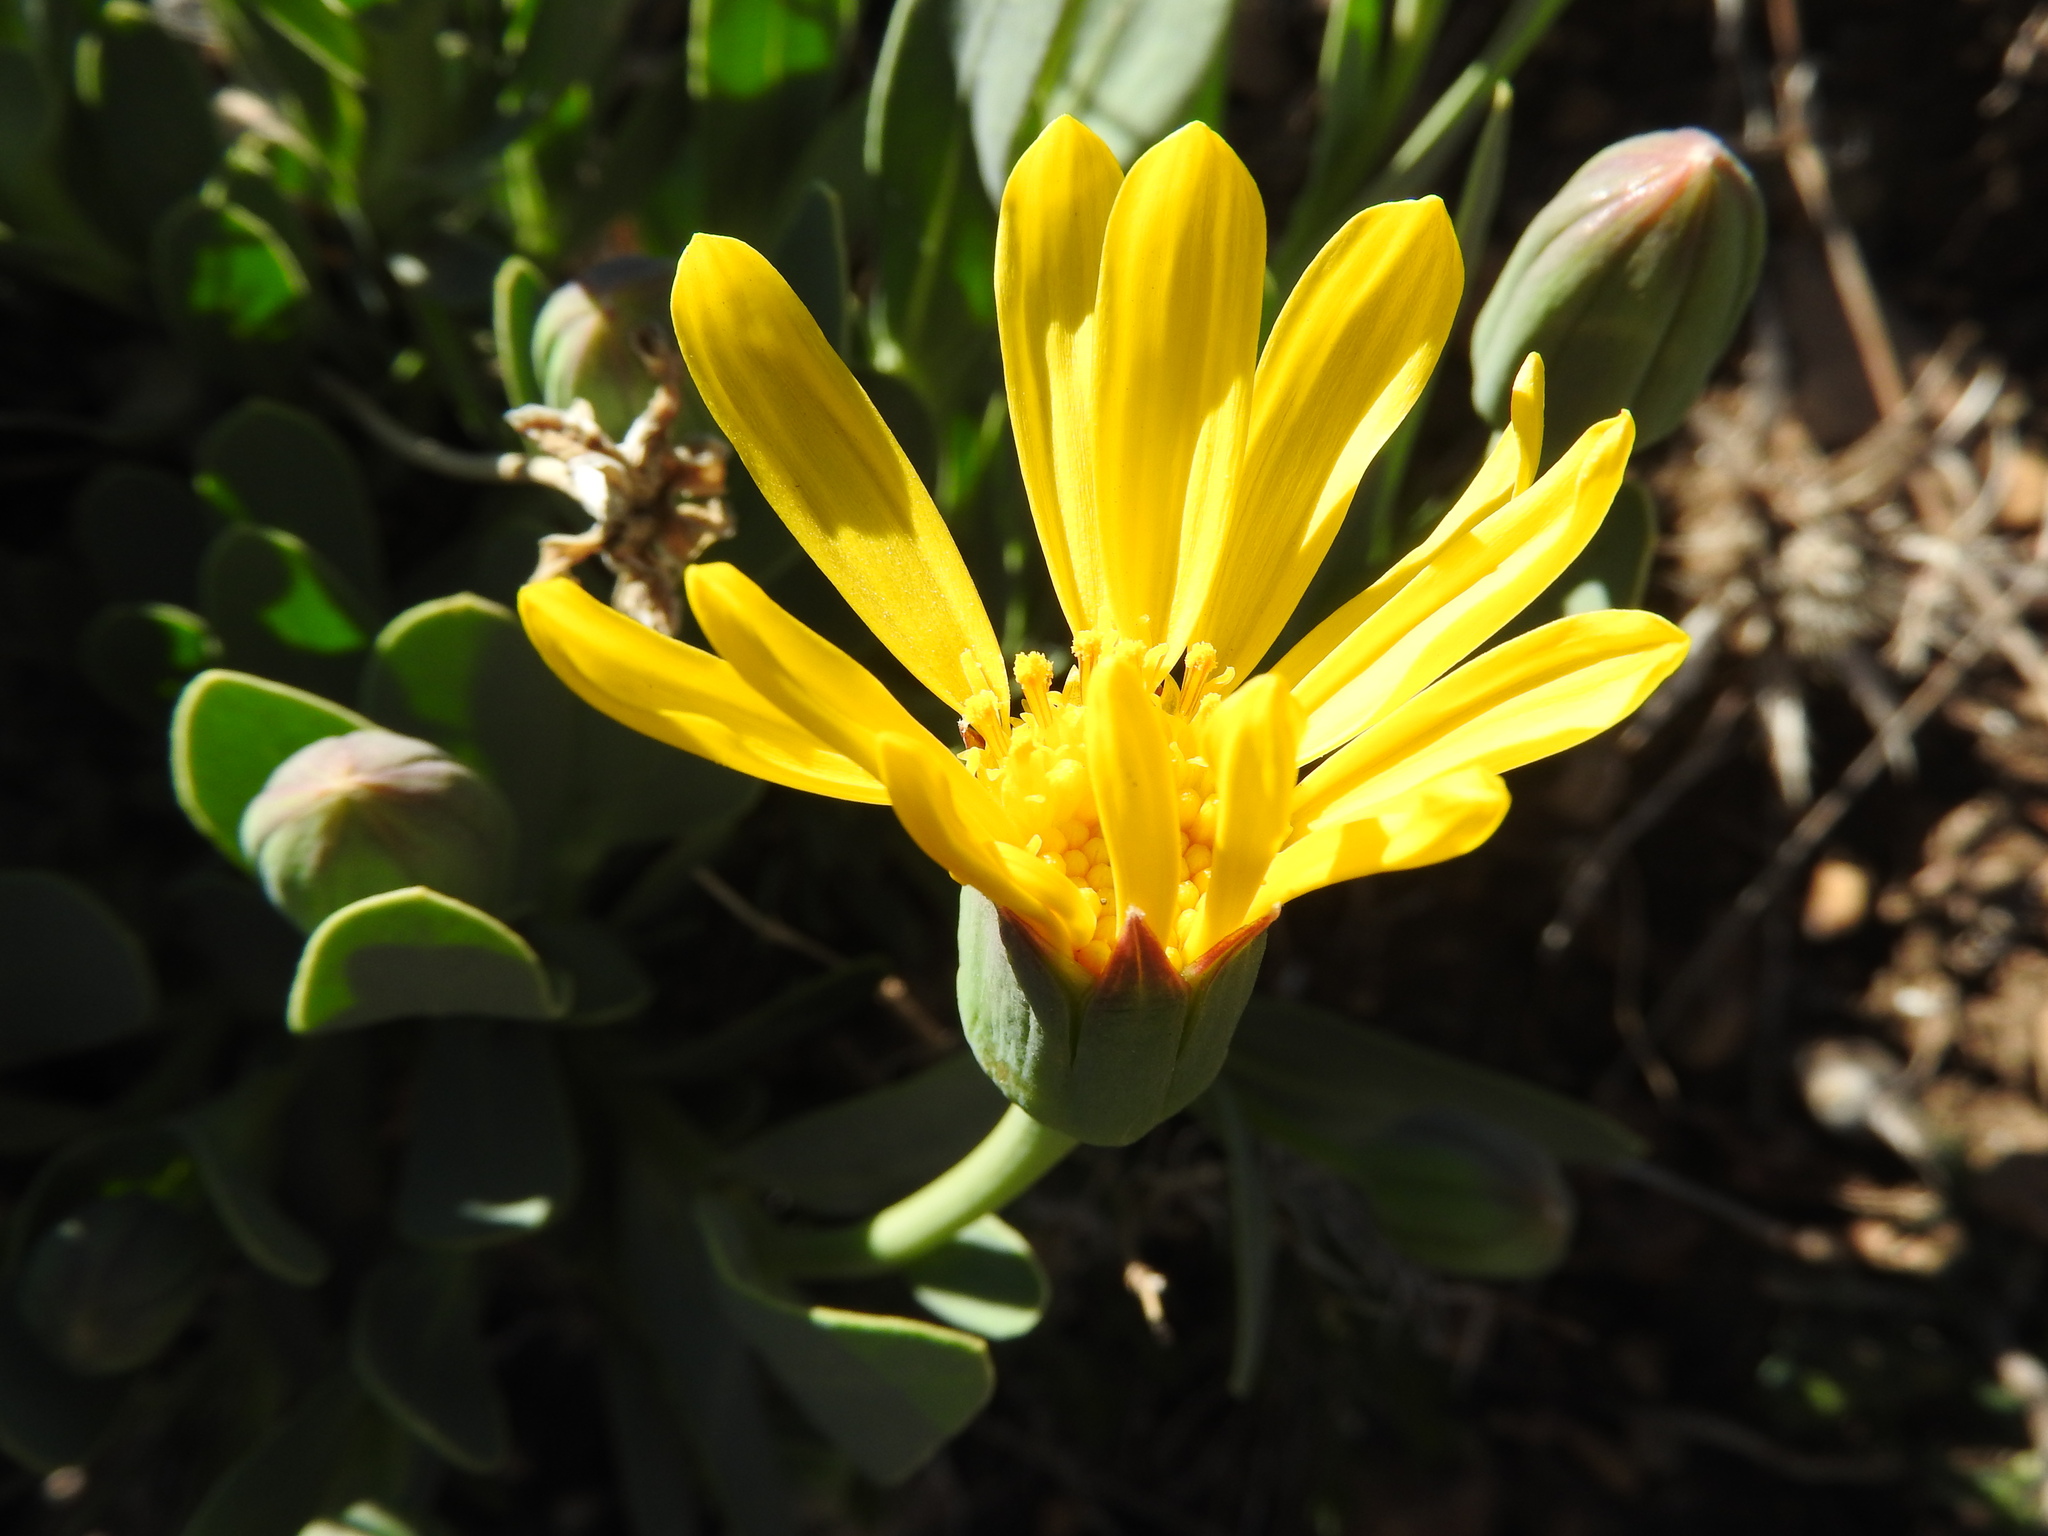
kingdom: Plantae
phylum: Tracheophyta
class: Magnoliopsida
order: Asterales
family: Asteraceae
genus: Hertia
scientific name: Hertia cheirifolia
